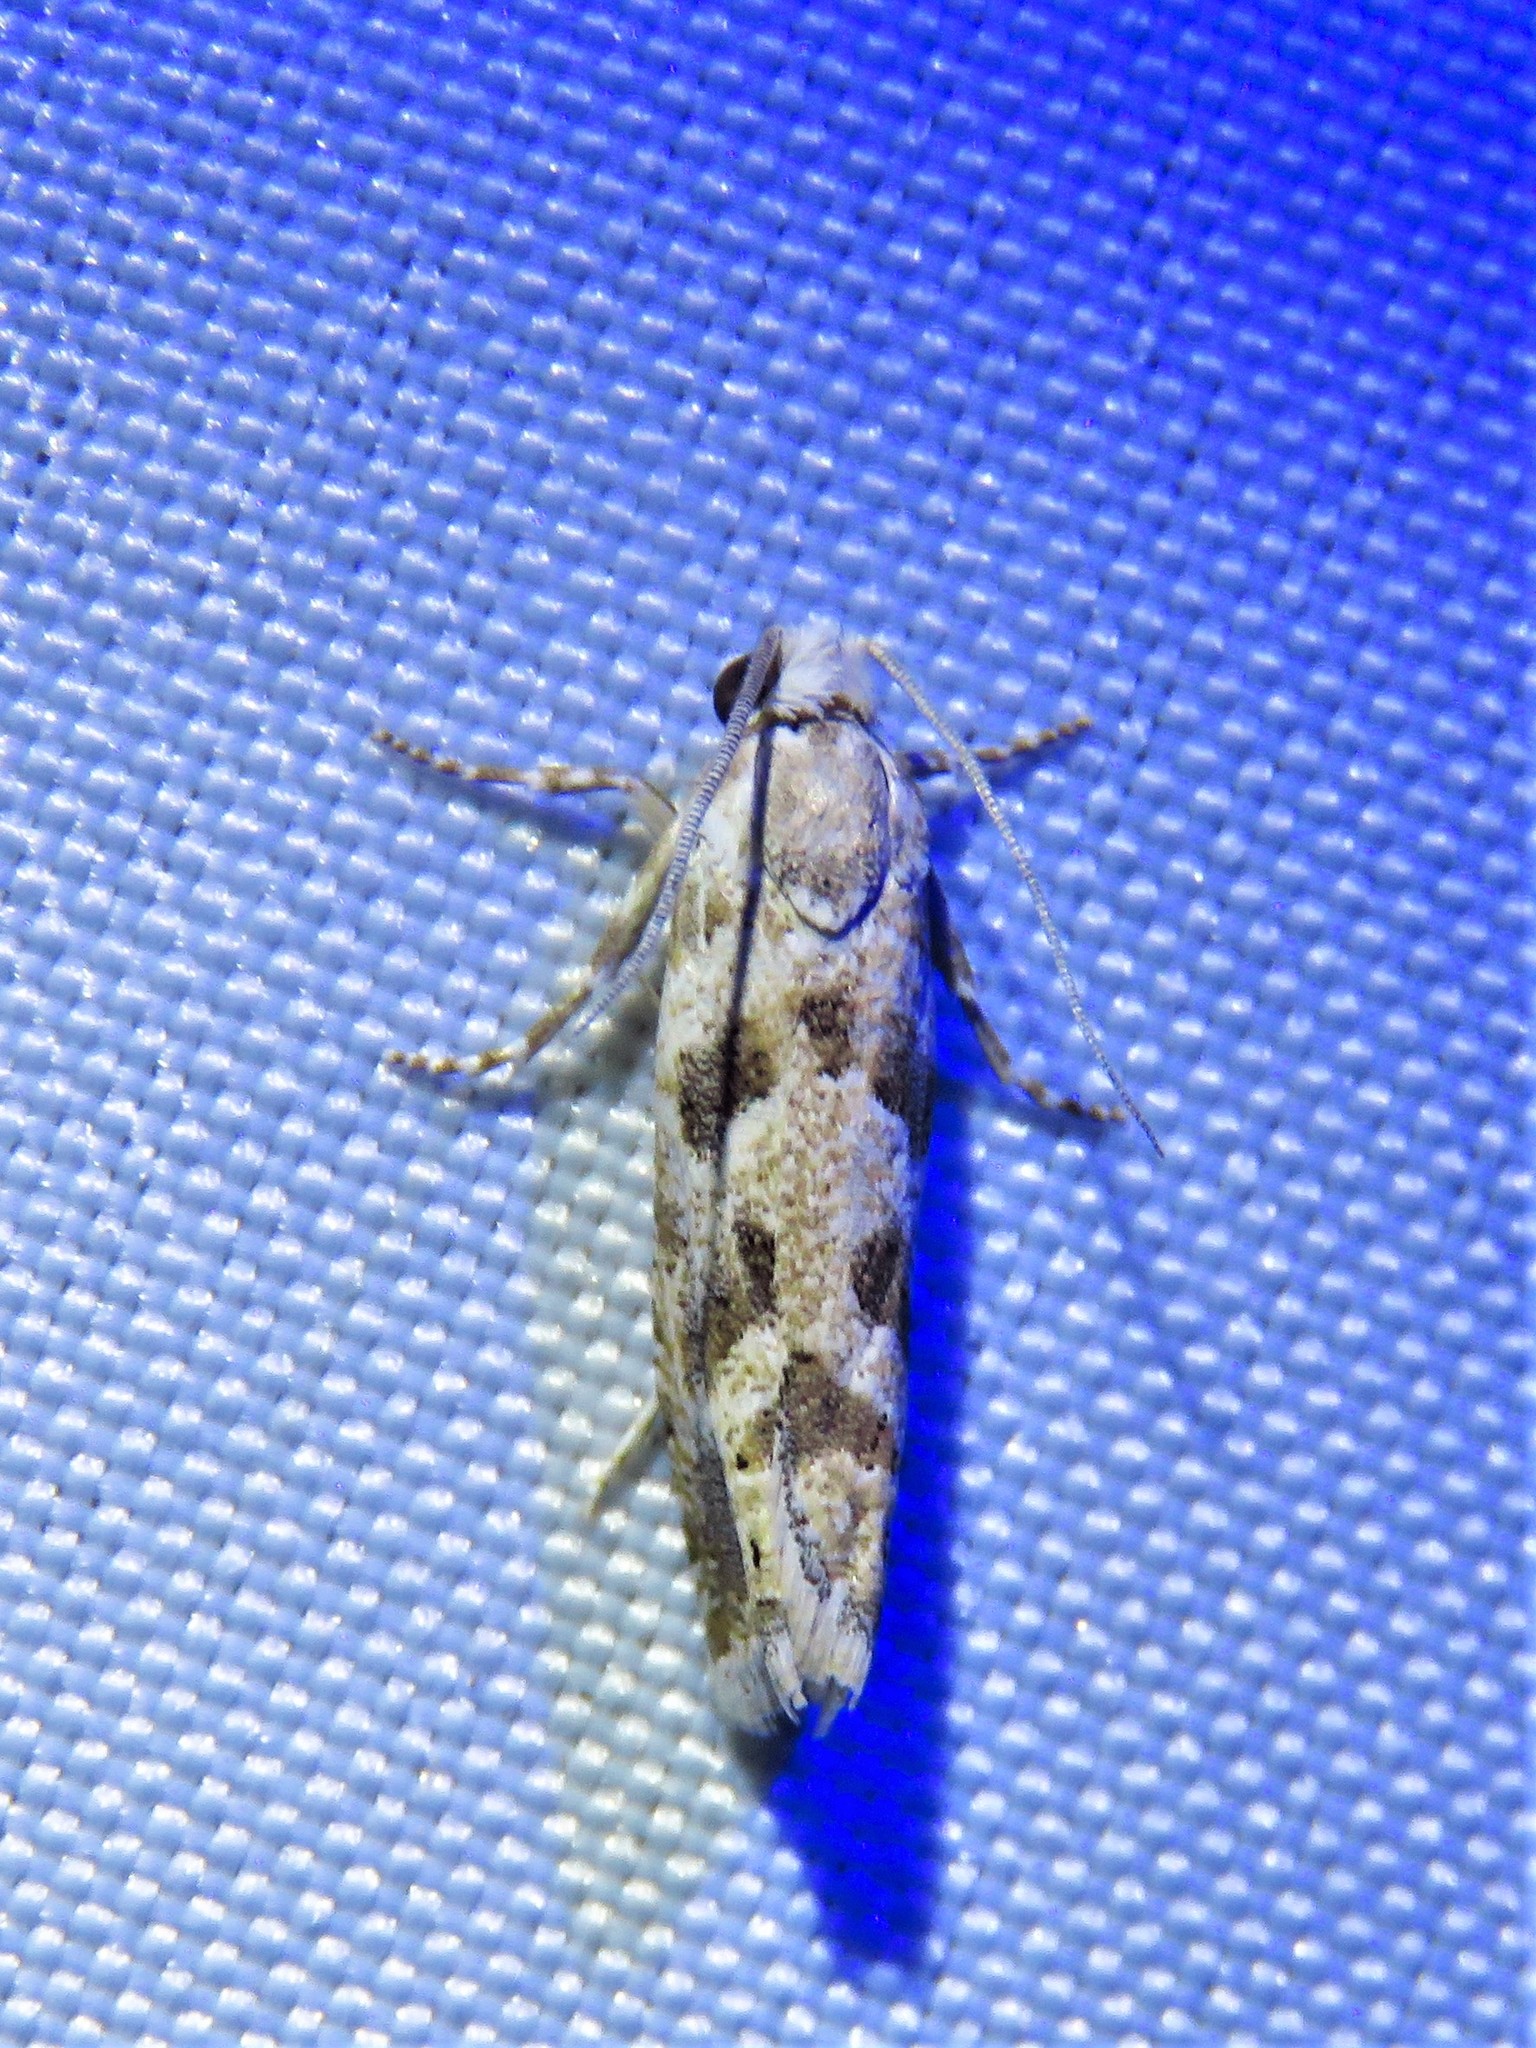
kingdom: Animalia
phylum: Arthropoda
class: Insecta
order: Lepidoptera
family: Tortricidae
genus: Pelochrista
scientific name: Pelochrista reversana
